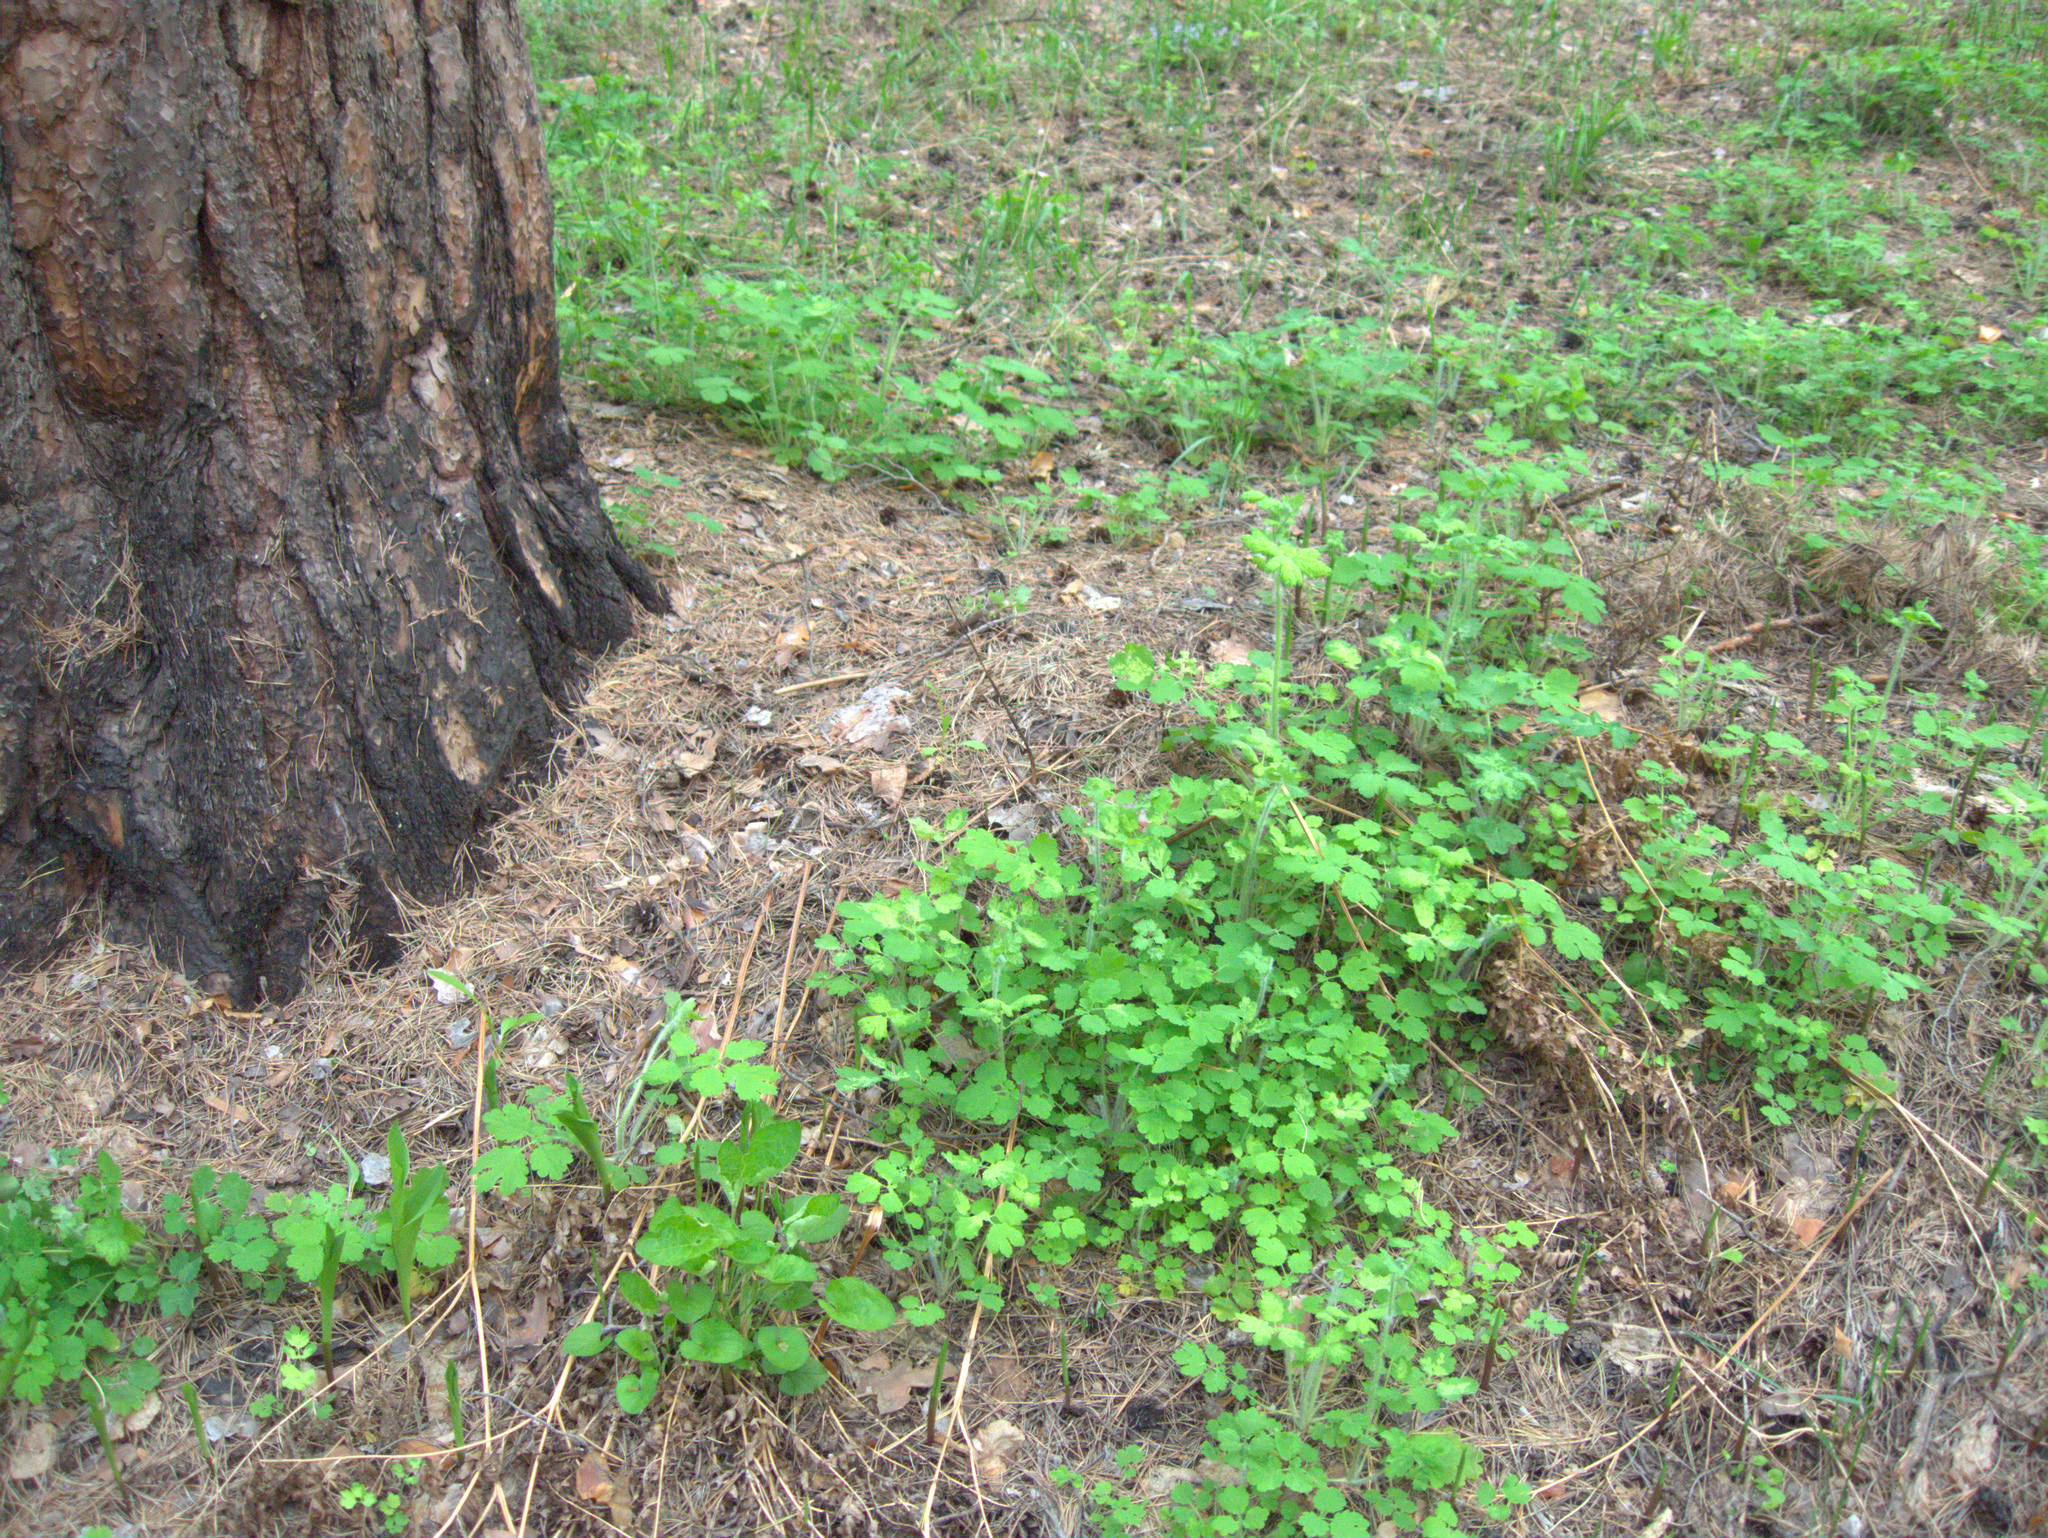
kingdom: Plantae
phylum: Tracheophyta
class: Liliopsida
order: Asparagales
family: Asparagaceae
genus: Convallaria
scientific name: Convallaria majalis
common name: Lily-of-the-valley
